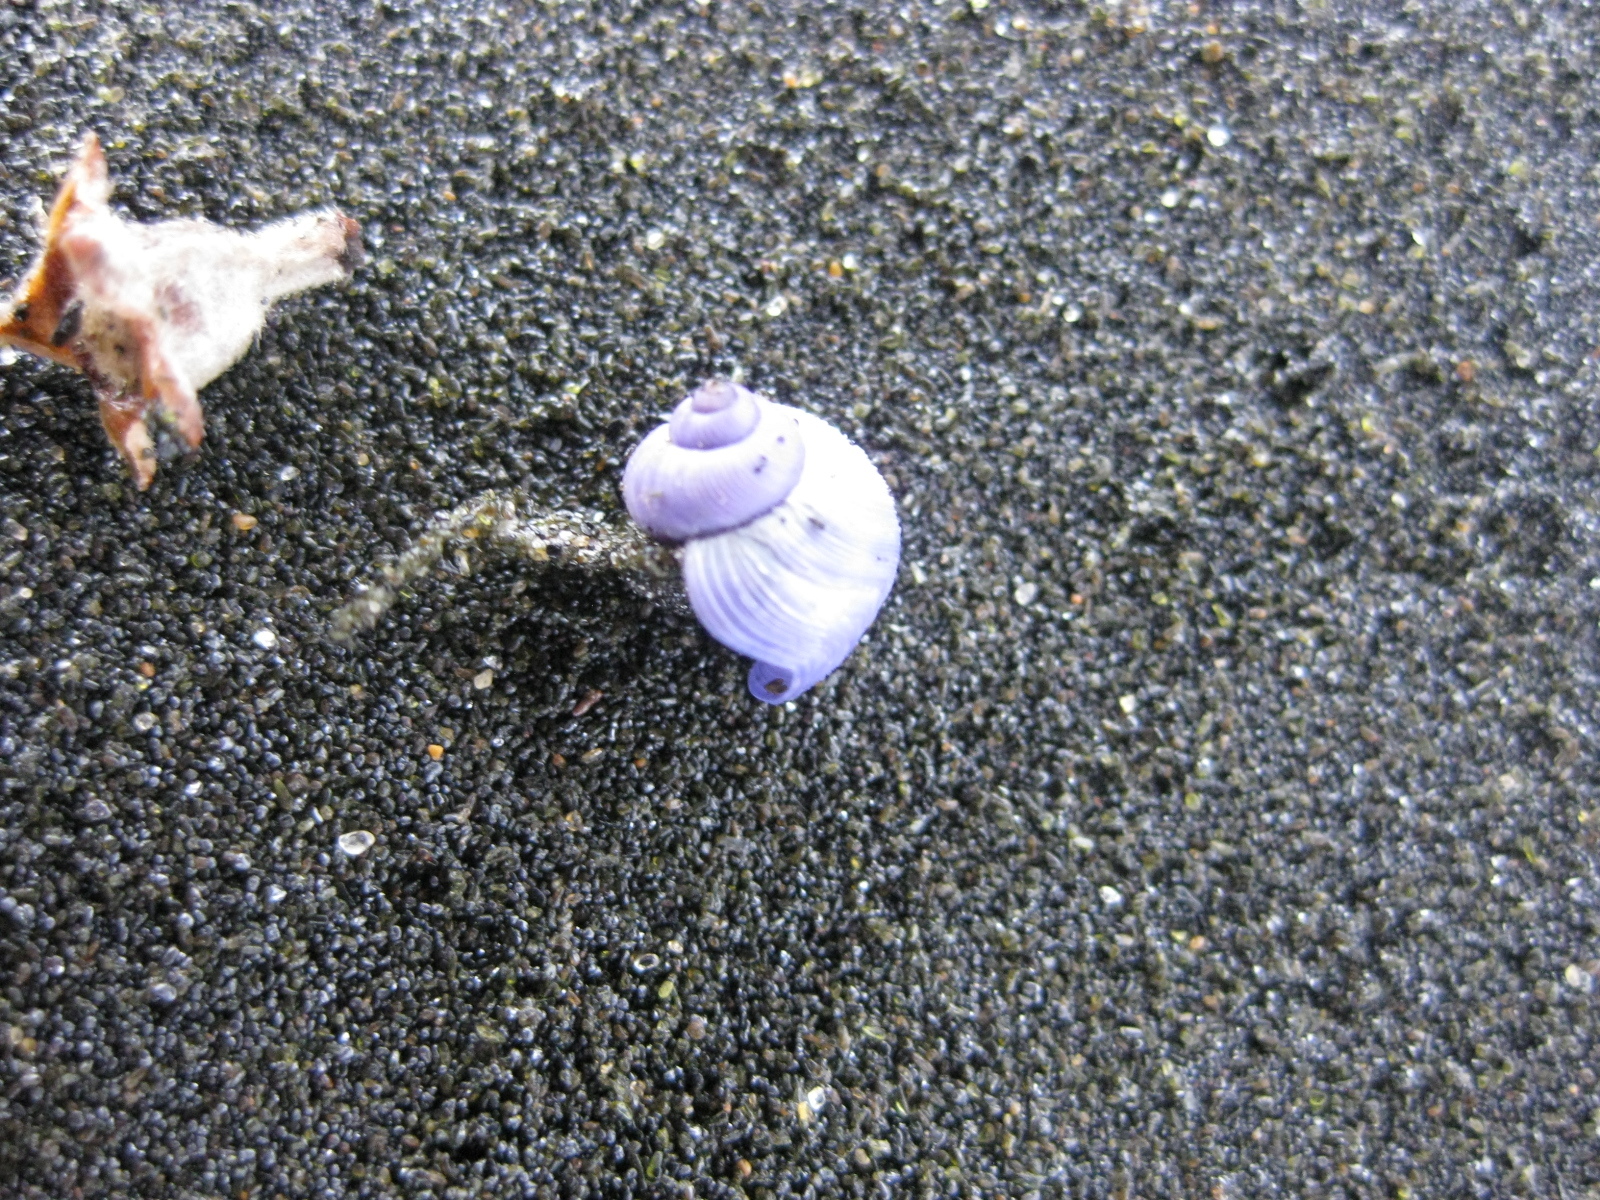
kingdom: Animalia
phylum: Mollusca
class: Gastropoda
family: Epitoniidae
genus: Janthina
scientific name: Janthina exigua
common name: Dwarf janthina
